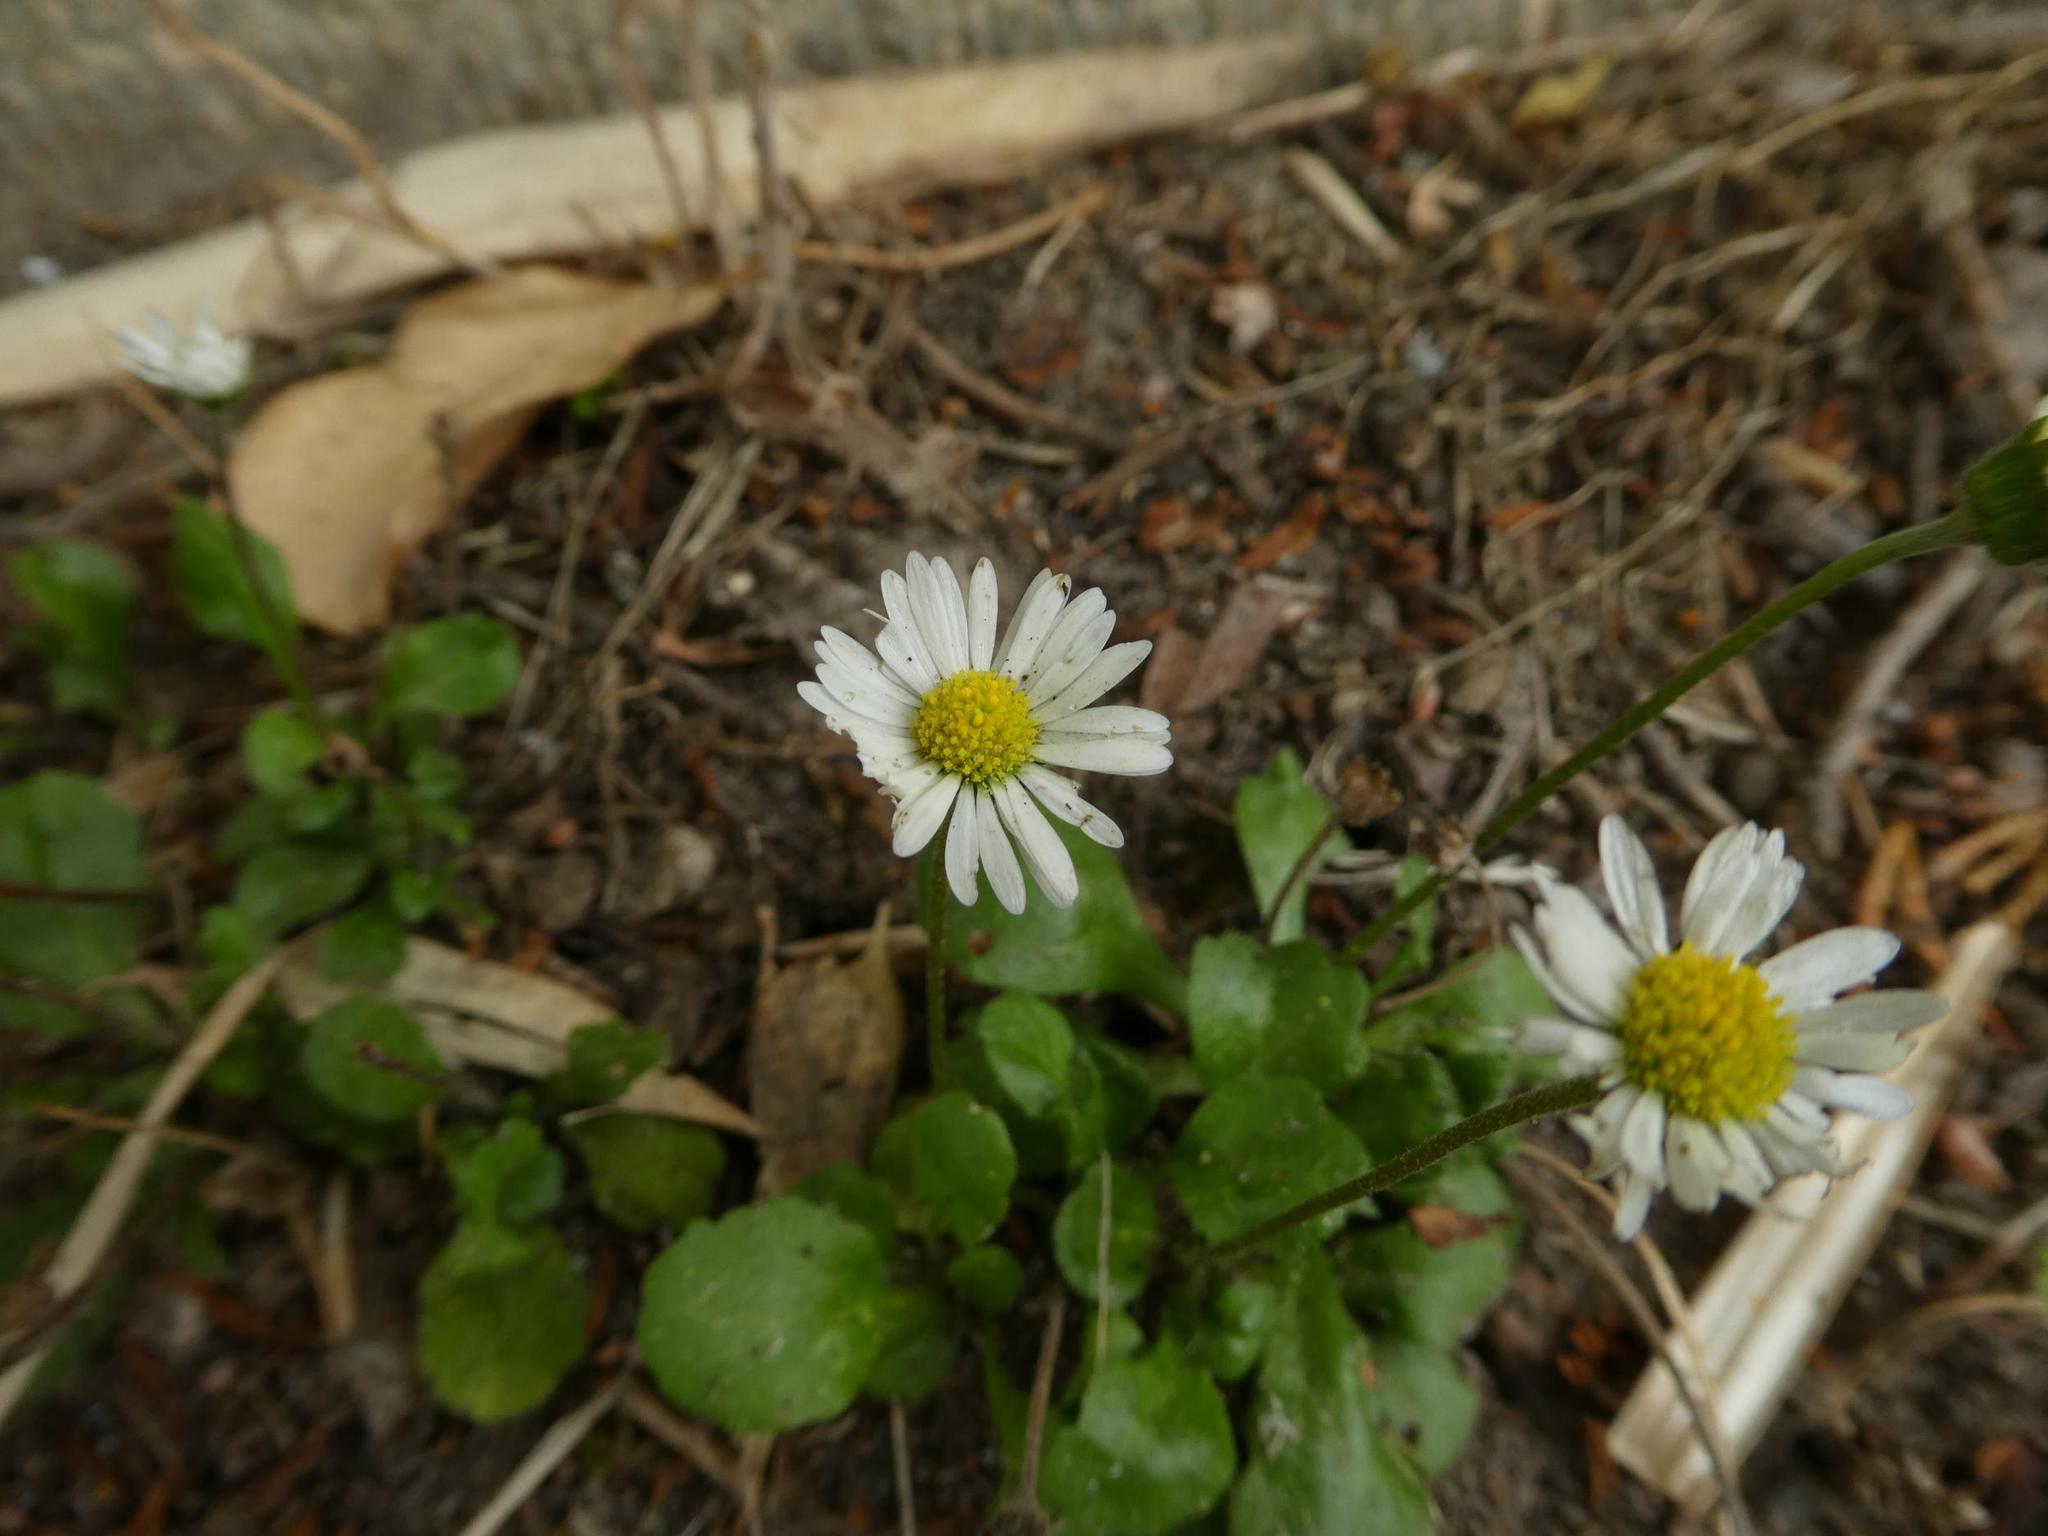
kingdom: Plantae
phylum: Tracheophyta
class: Magnoliopsida
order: Asterales
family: Asteraceae
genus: Bellis
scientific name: Bellis perennis
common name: Lawndaisy
